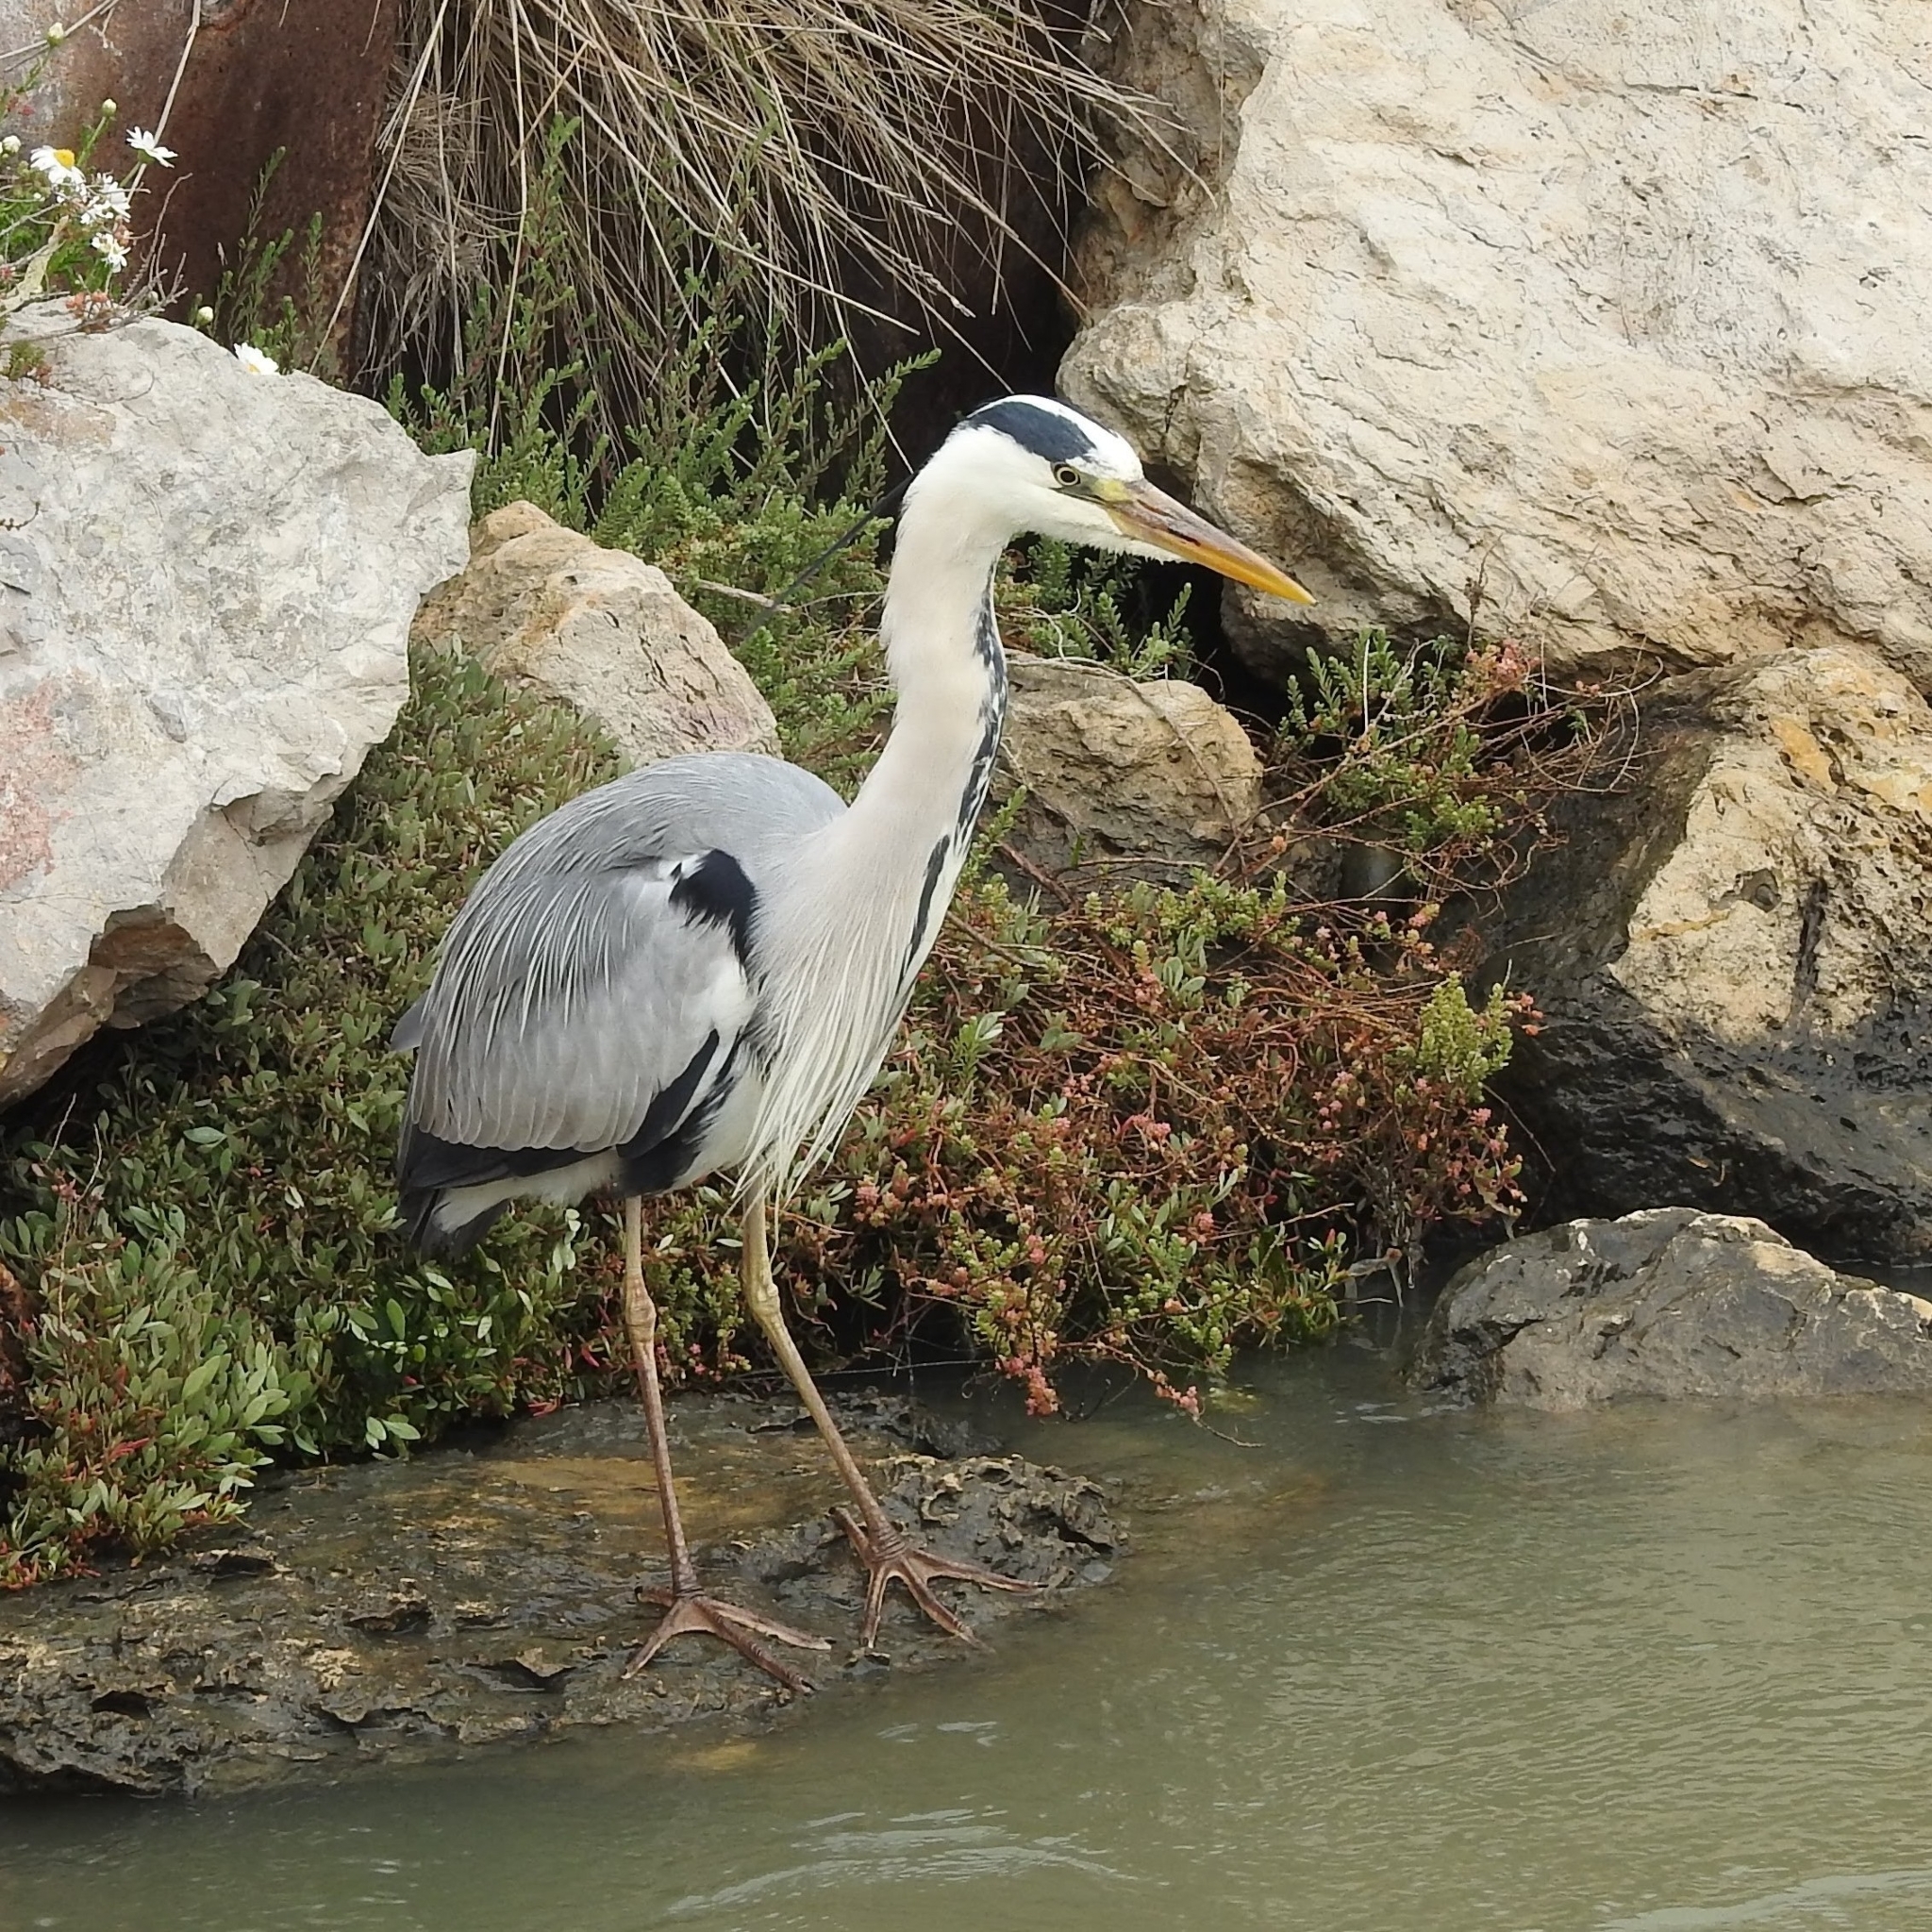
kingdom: Animalia
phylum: Chordata
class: Aves
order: Pelecaniformes
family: Ardeidae
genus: Ardea
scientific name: Ardea cinerea
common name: Grey heron
